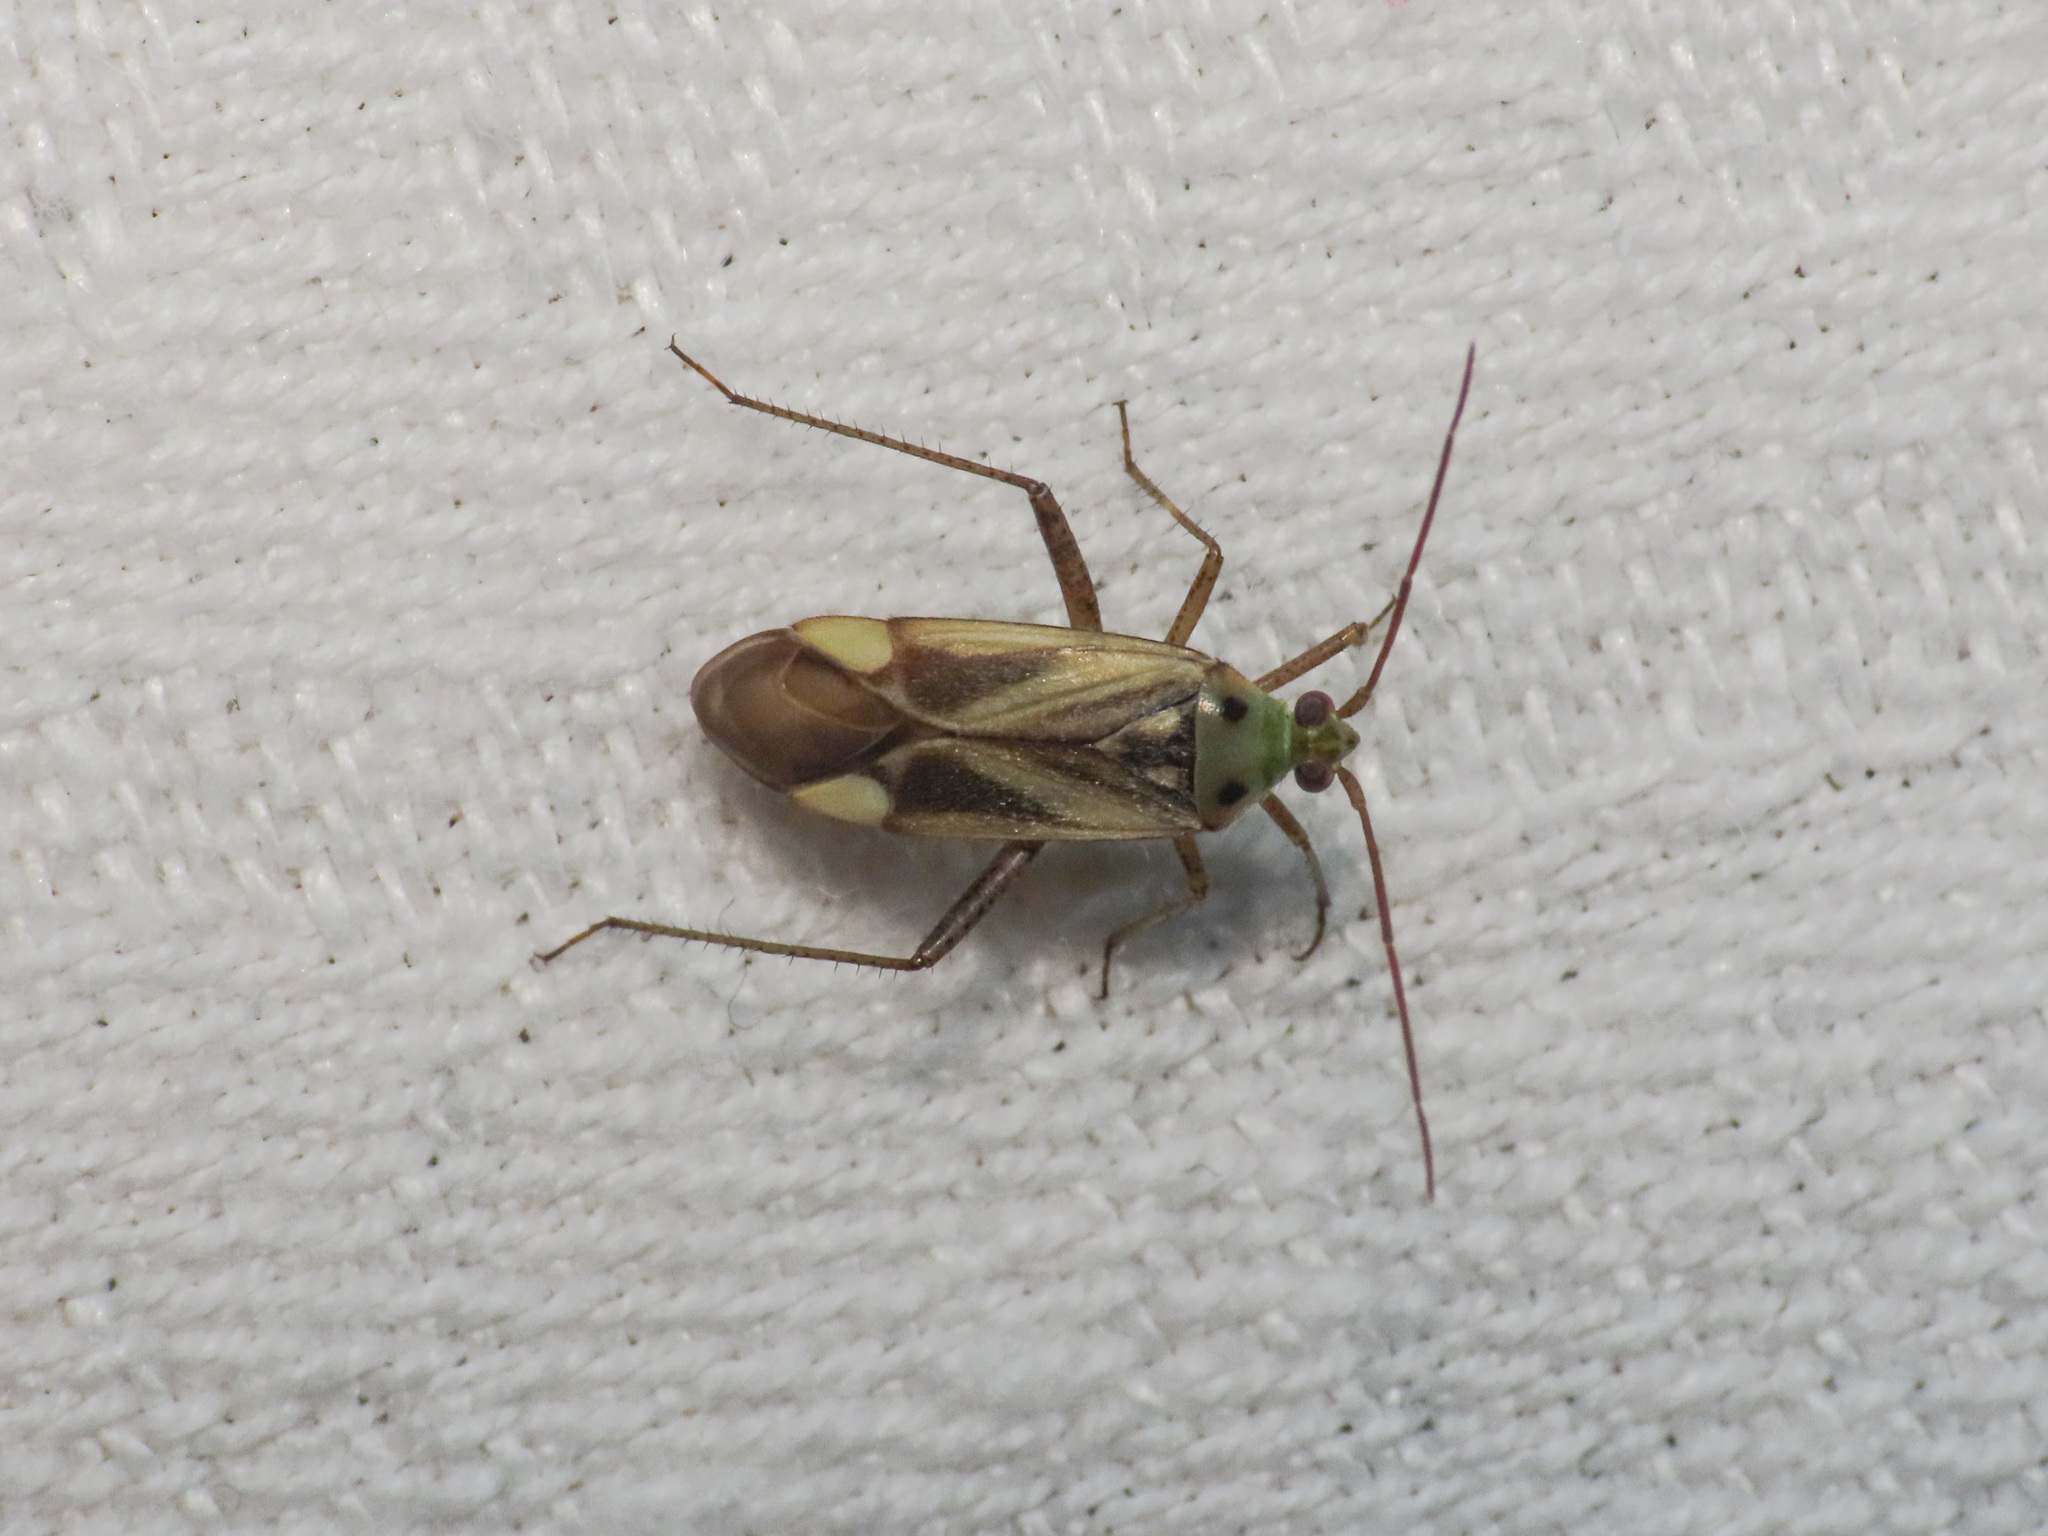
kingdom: Animalia
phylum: Arthropoda
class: Insecta
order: Hemiptera
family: Miridae
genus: Adelphocoris
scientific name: Adelphocoris lineolatus
